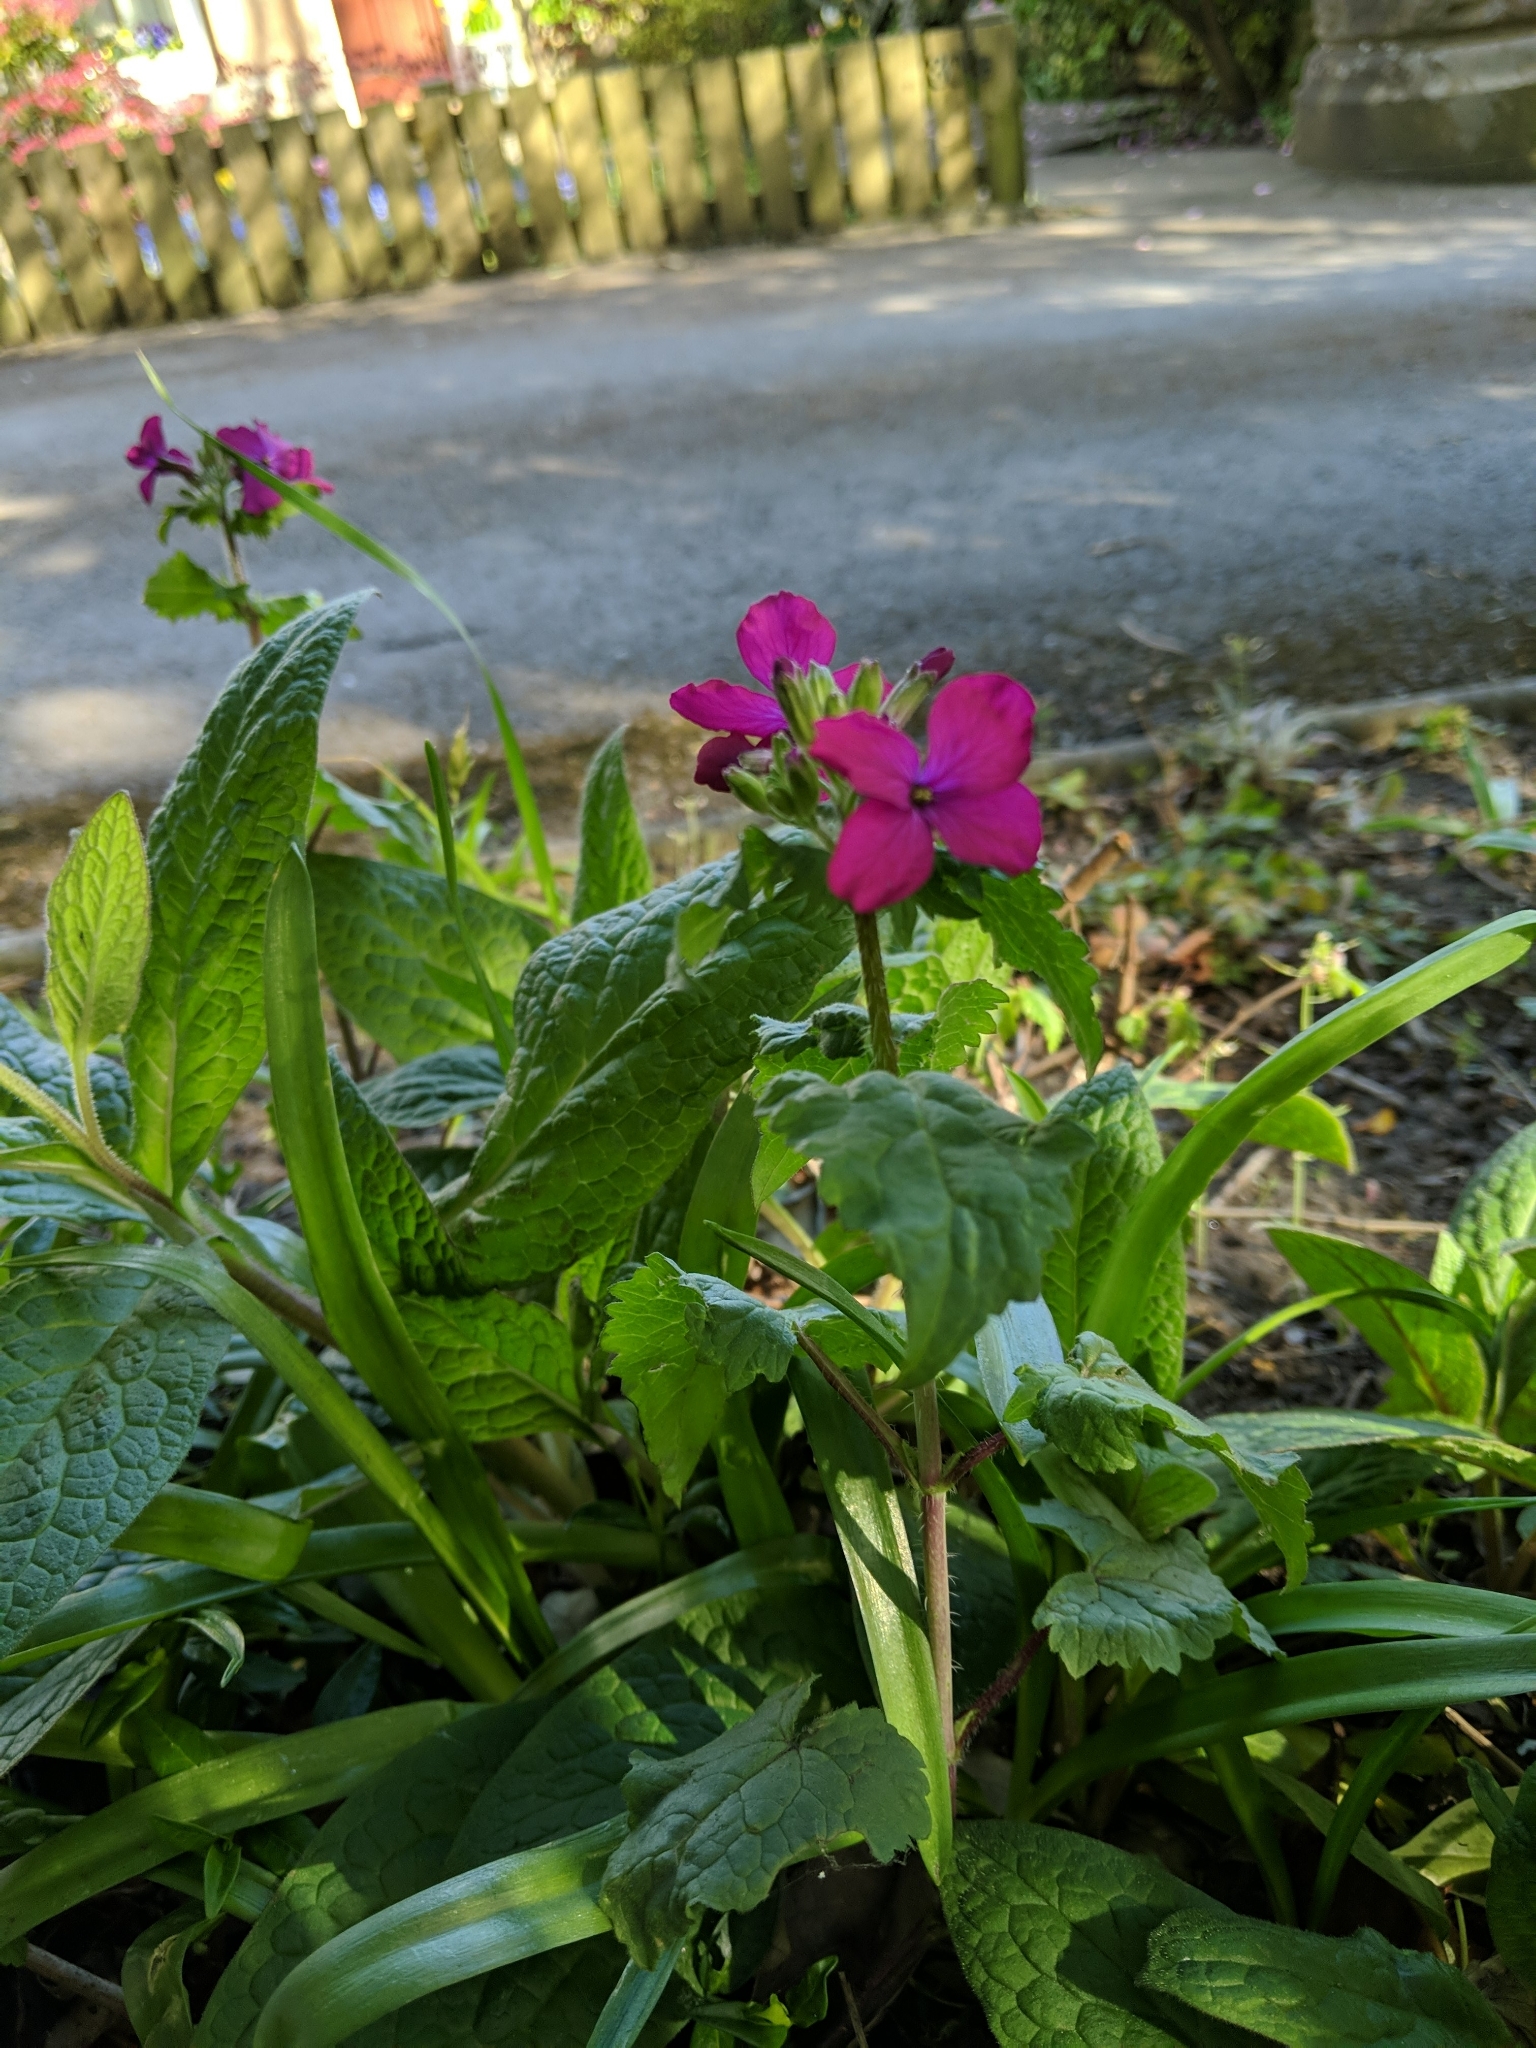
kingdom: Plantae
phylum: Tracheophyta
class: Magnoliopsida
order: Brassicales
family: Brassicaceae
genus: Lunaria
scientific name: Lunaria annua
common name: Honesty
